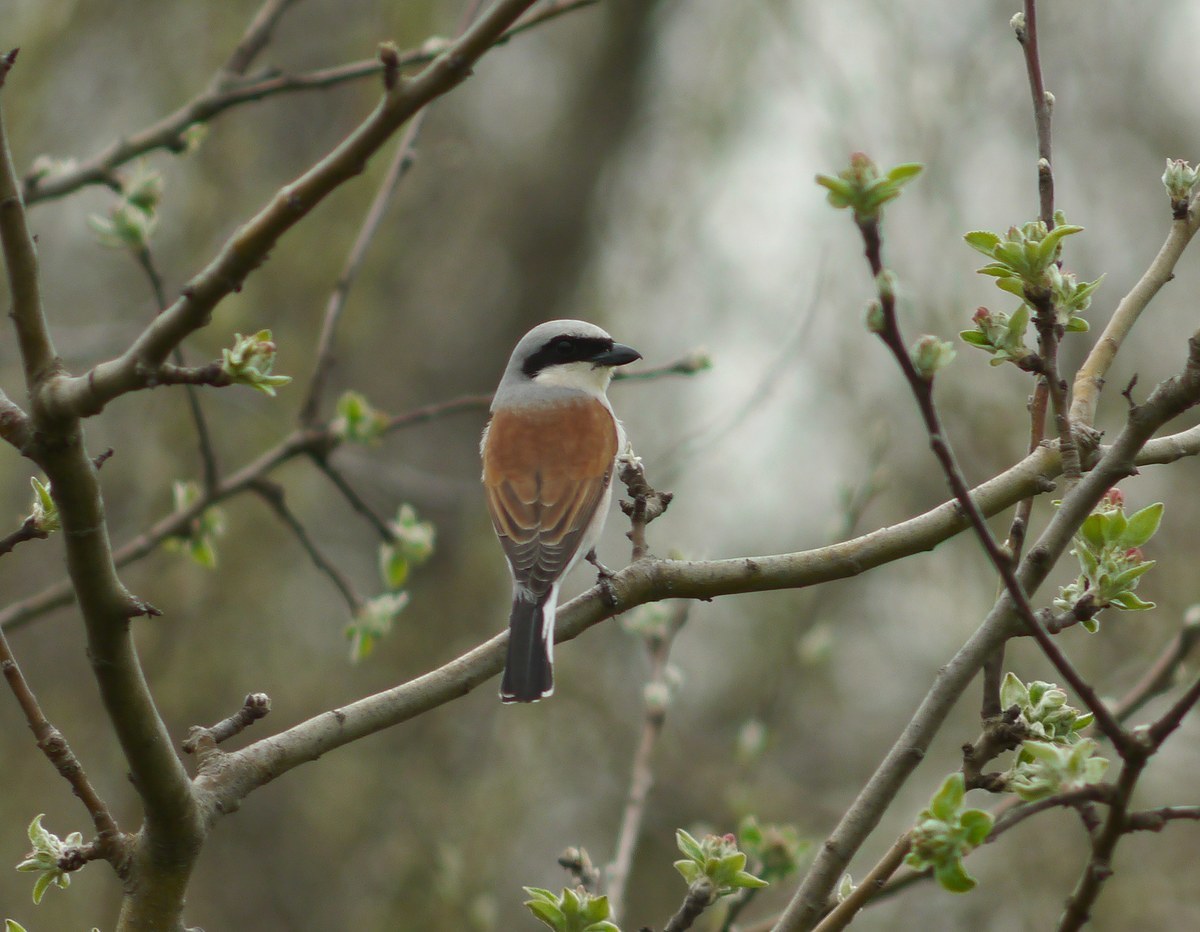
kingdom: Animalia
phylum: Chordata
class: Aves
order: Passeriformes
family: Laniidae
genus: Lanius
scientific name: Lanius collurio
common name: Red-backed shrike
